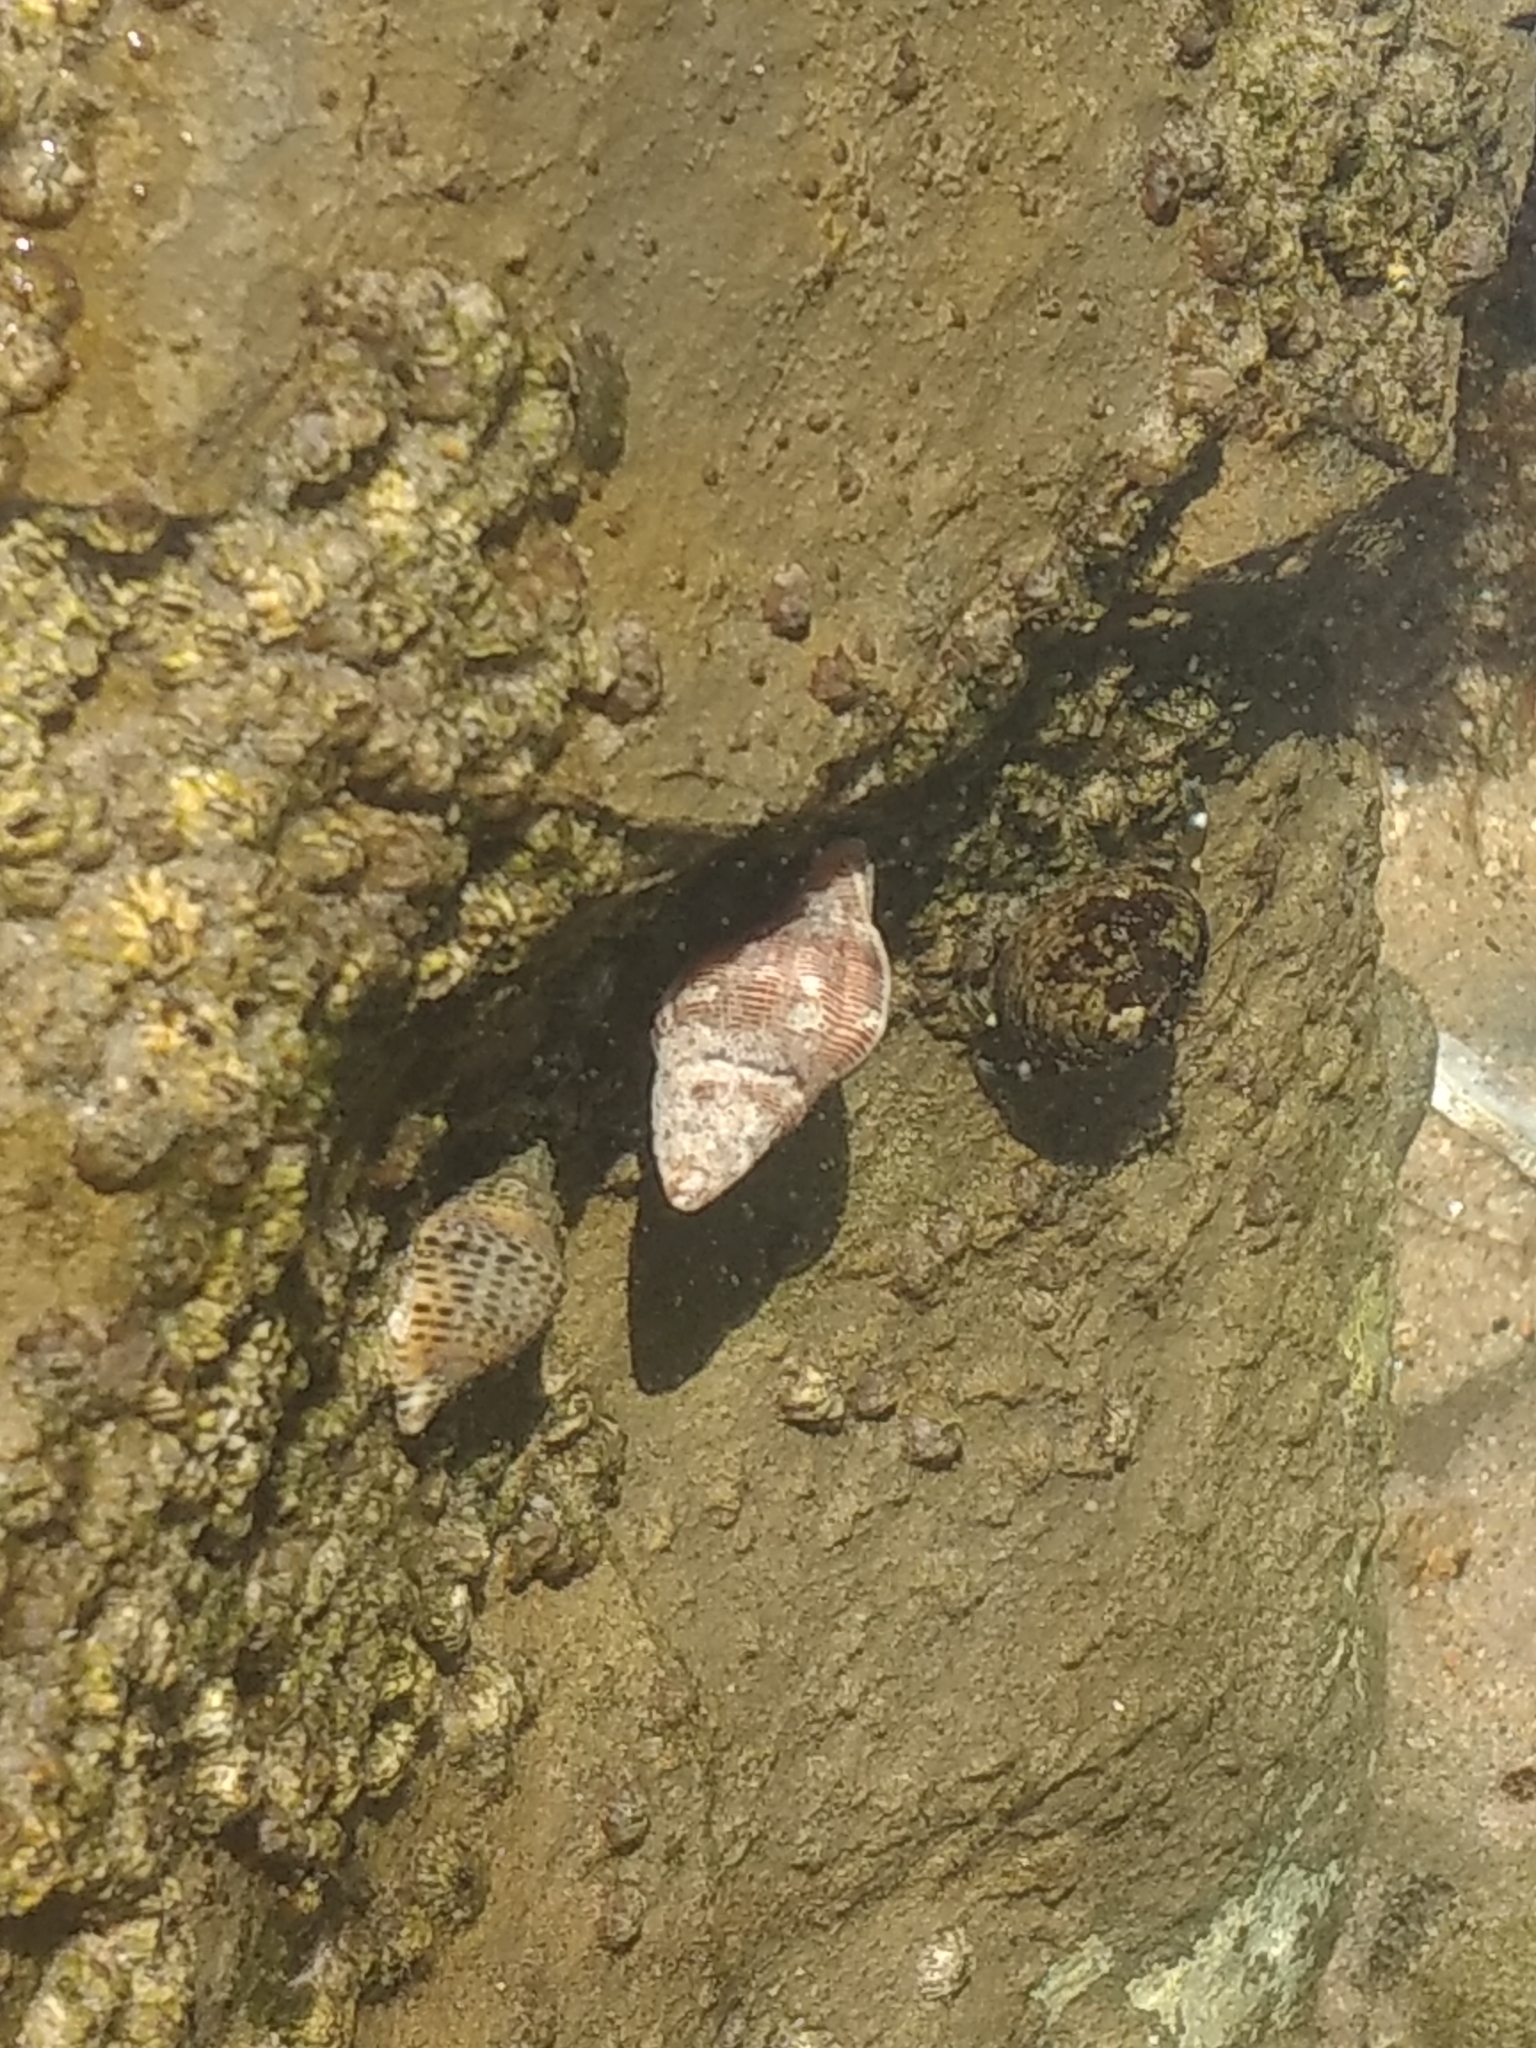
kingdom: Animalia
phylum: Mollusca
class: Gastropoda
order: Neogastropoda
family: Muricidae
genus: Roperia
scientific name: Roperia poulsoni
